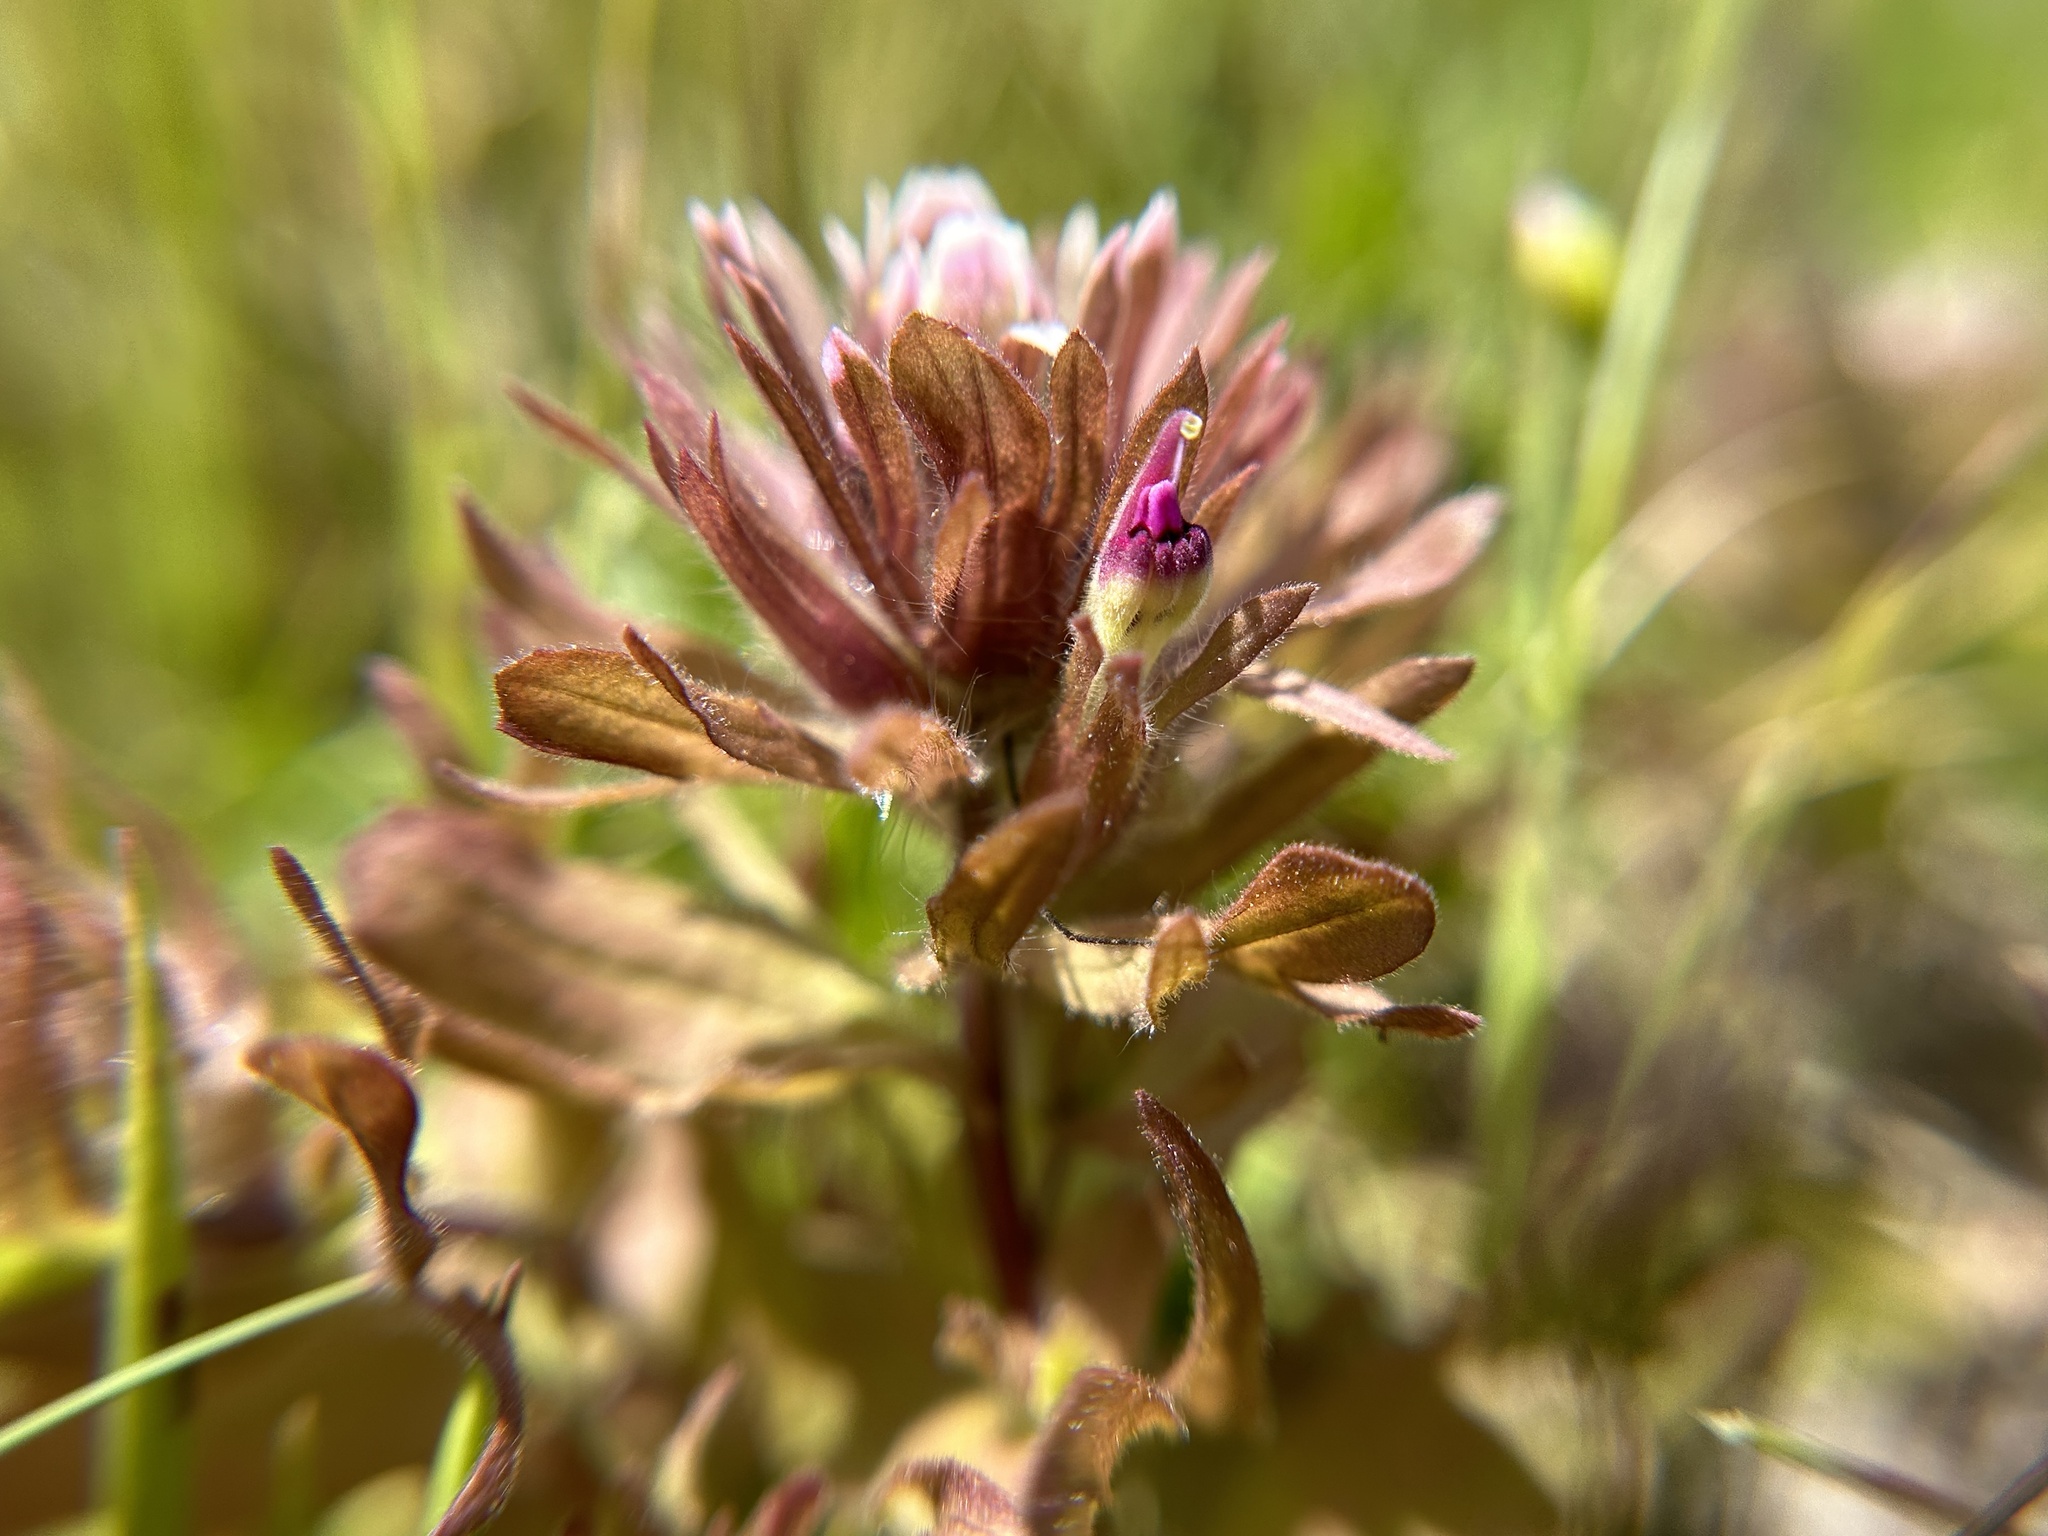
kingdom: Plantae
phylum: Tracheophyta
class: Magnoliopsida
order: Lamiales
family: Orobanchaceae
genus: Castilleja
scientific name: Castilleja ambigua
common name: Johnny-nip
